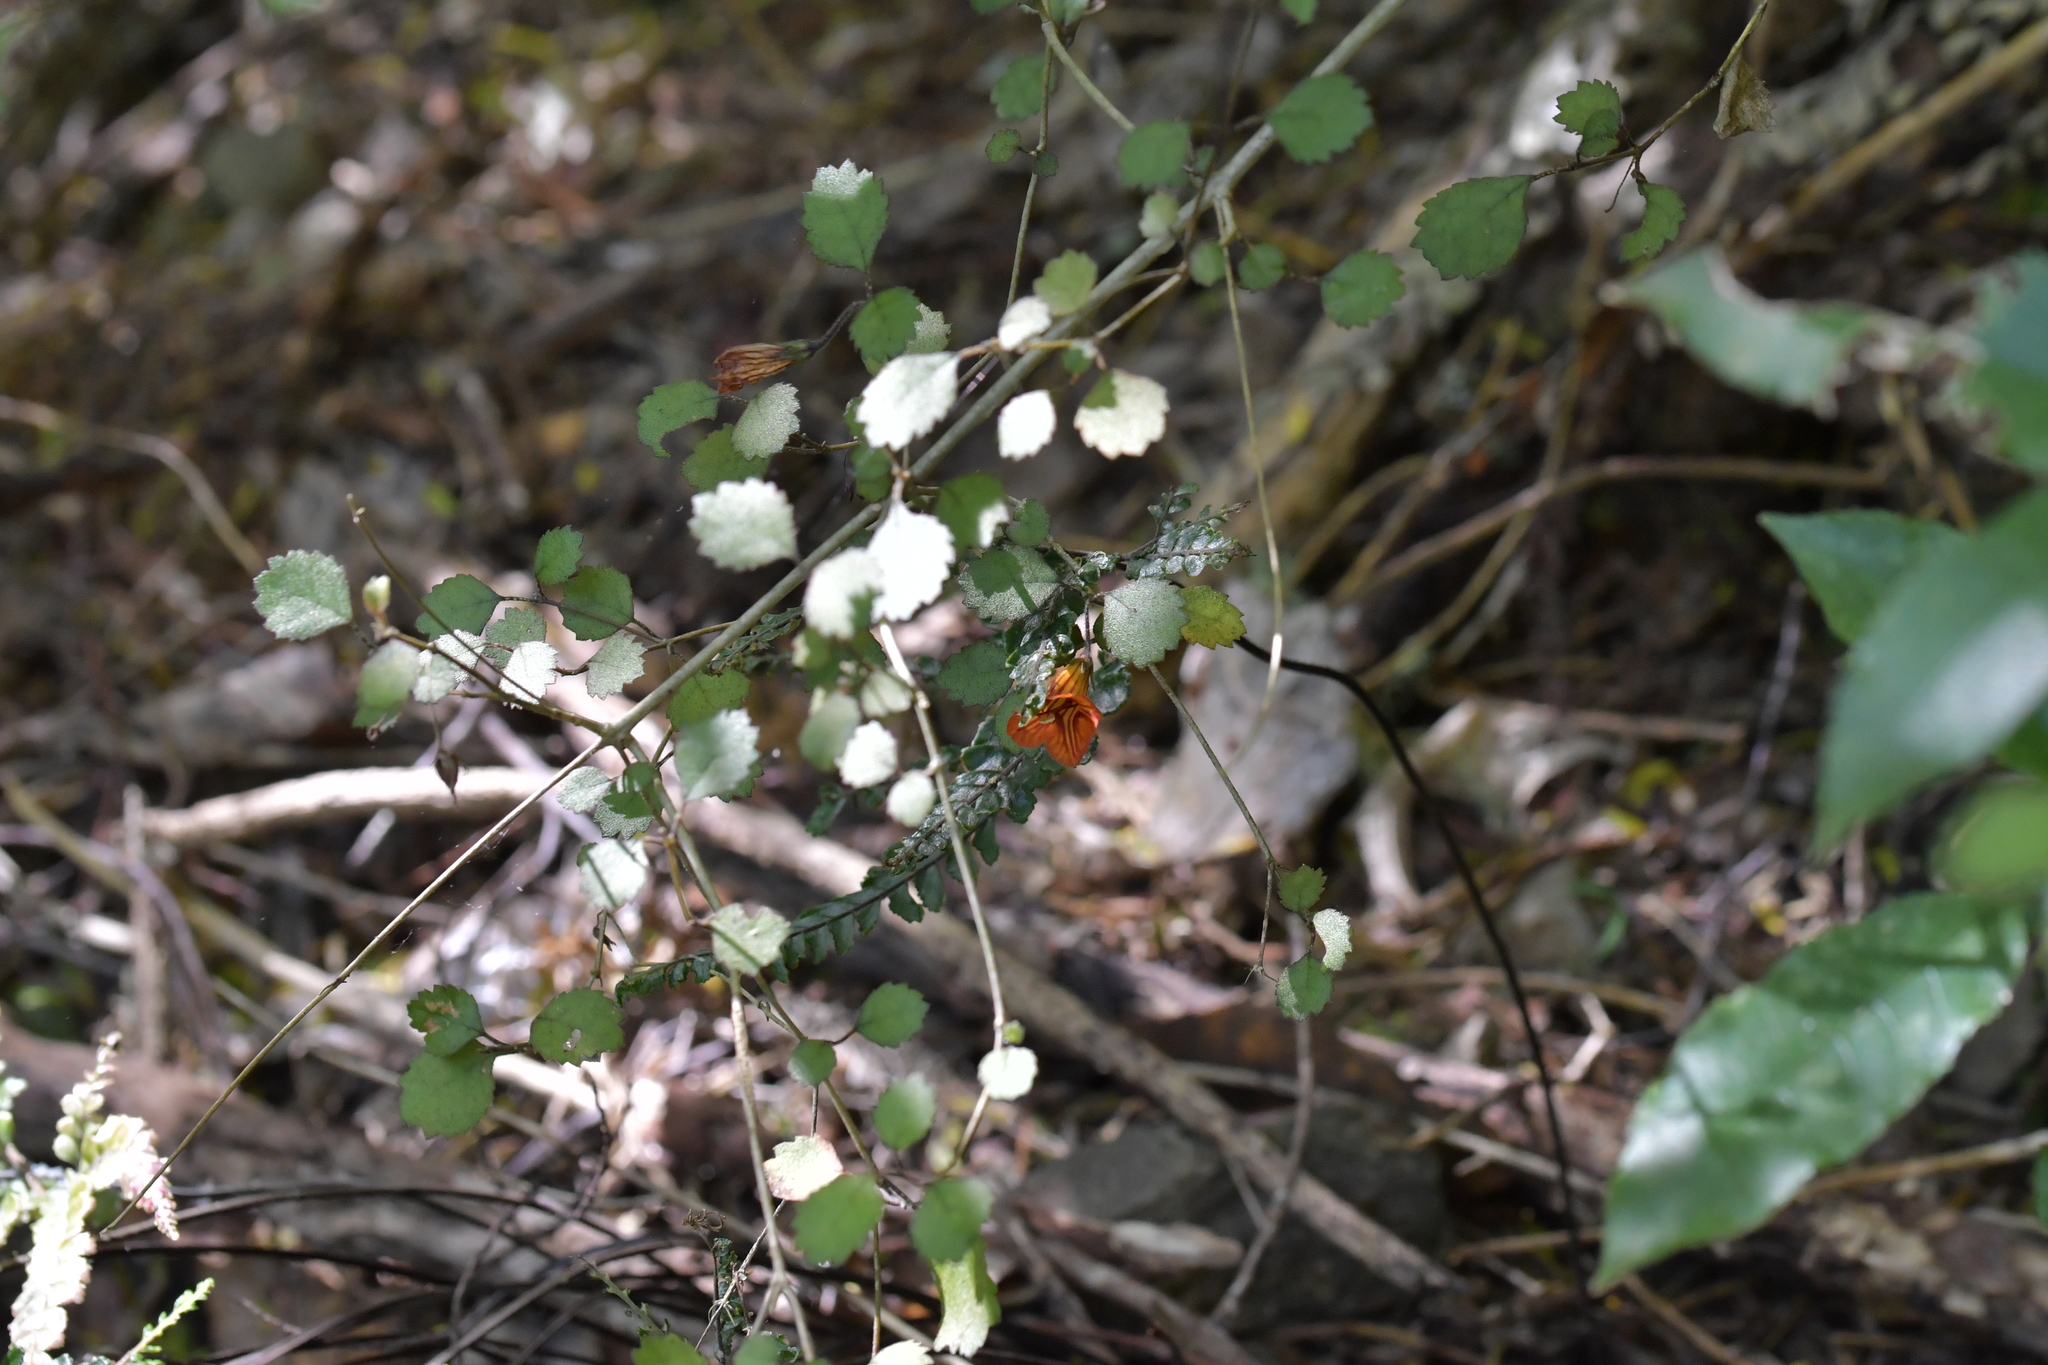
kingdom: Plantae
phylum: Tracheophyta
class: Magnoliopsida
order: Lamiales
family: Gesneriaceae
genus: Rhabdothamnus
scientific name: Rhabdothamnus solandri
